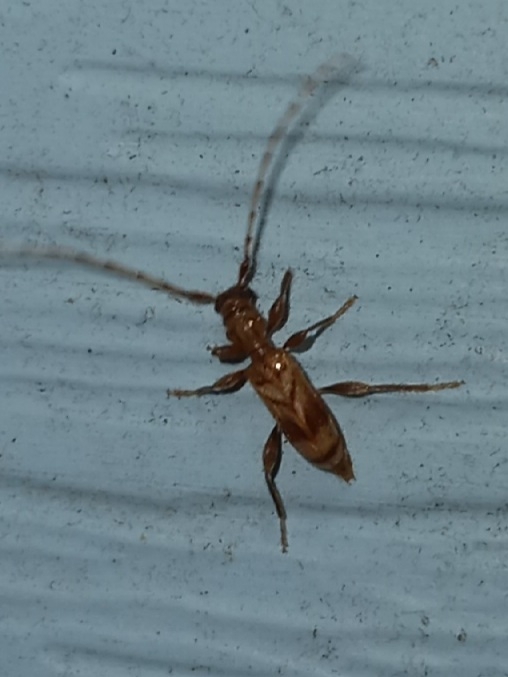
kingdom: Animalia
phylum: Arthropoda
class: Insecta
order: Coleoptera
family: Cerambycidae
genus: Obrium
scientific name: Obrium maculatum
